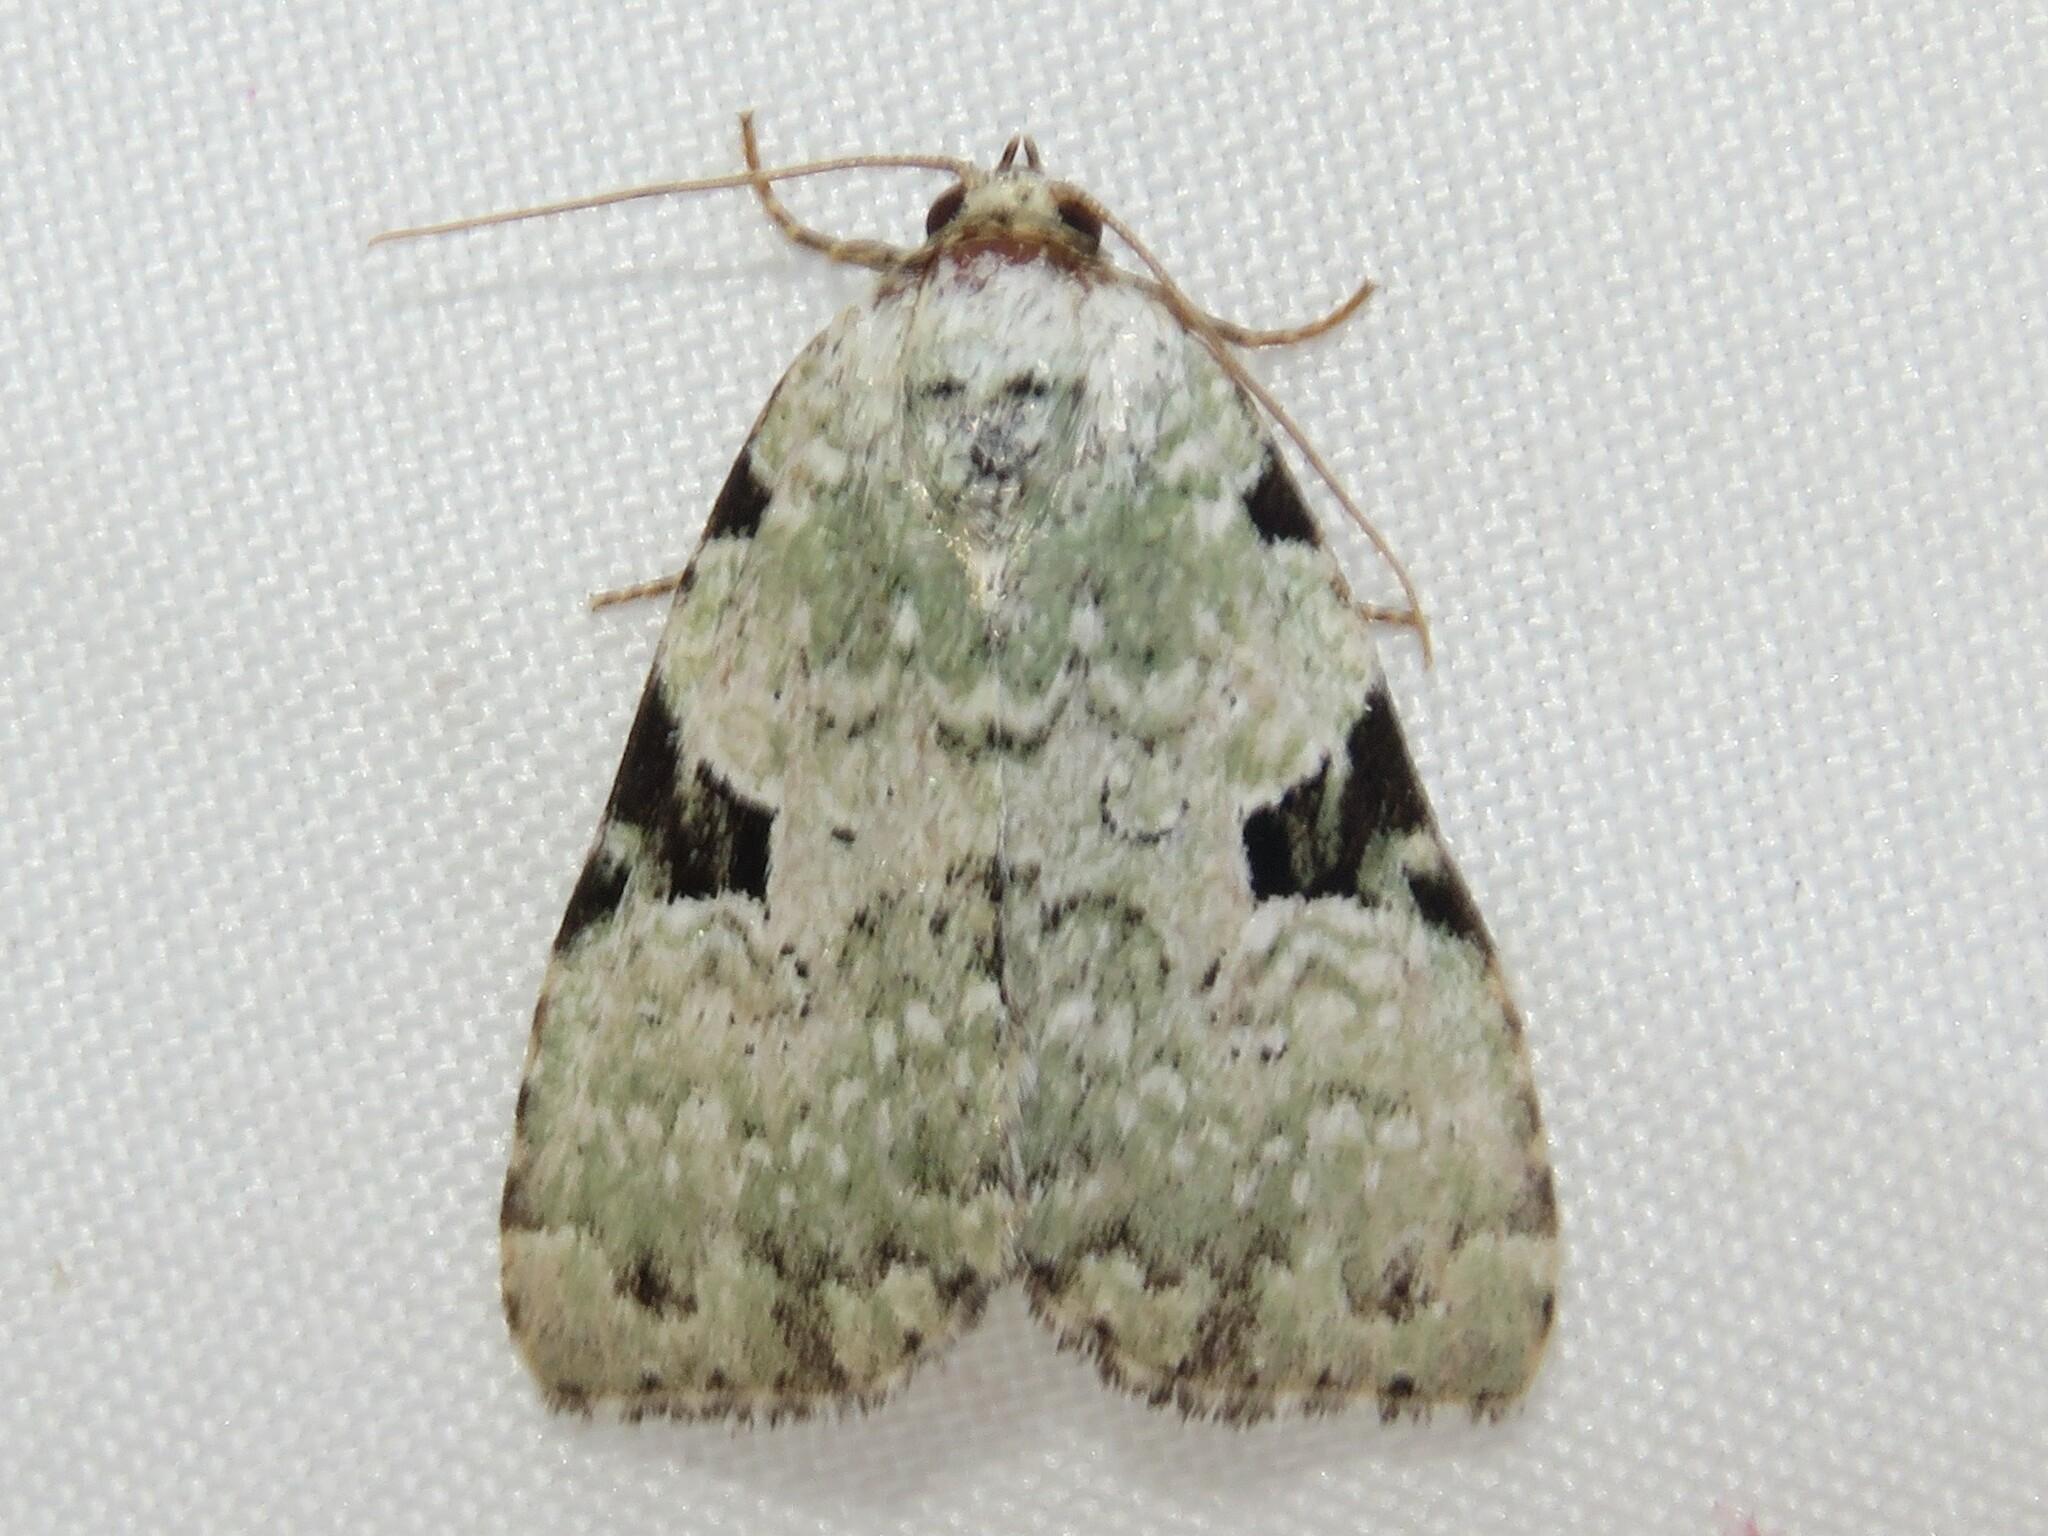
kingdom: Animalia
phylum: Arthropoda
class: Insecta
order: Lepidoptera
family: Noctuidae
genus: Leuconycta
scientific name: Leuconycta diphteroides
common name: Green leuconycta moth
